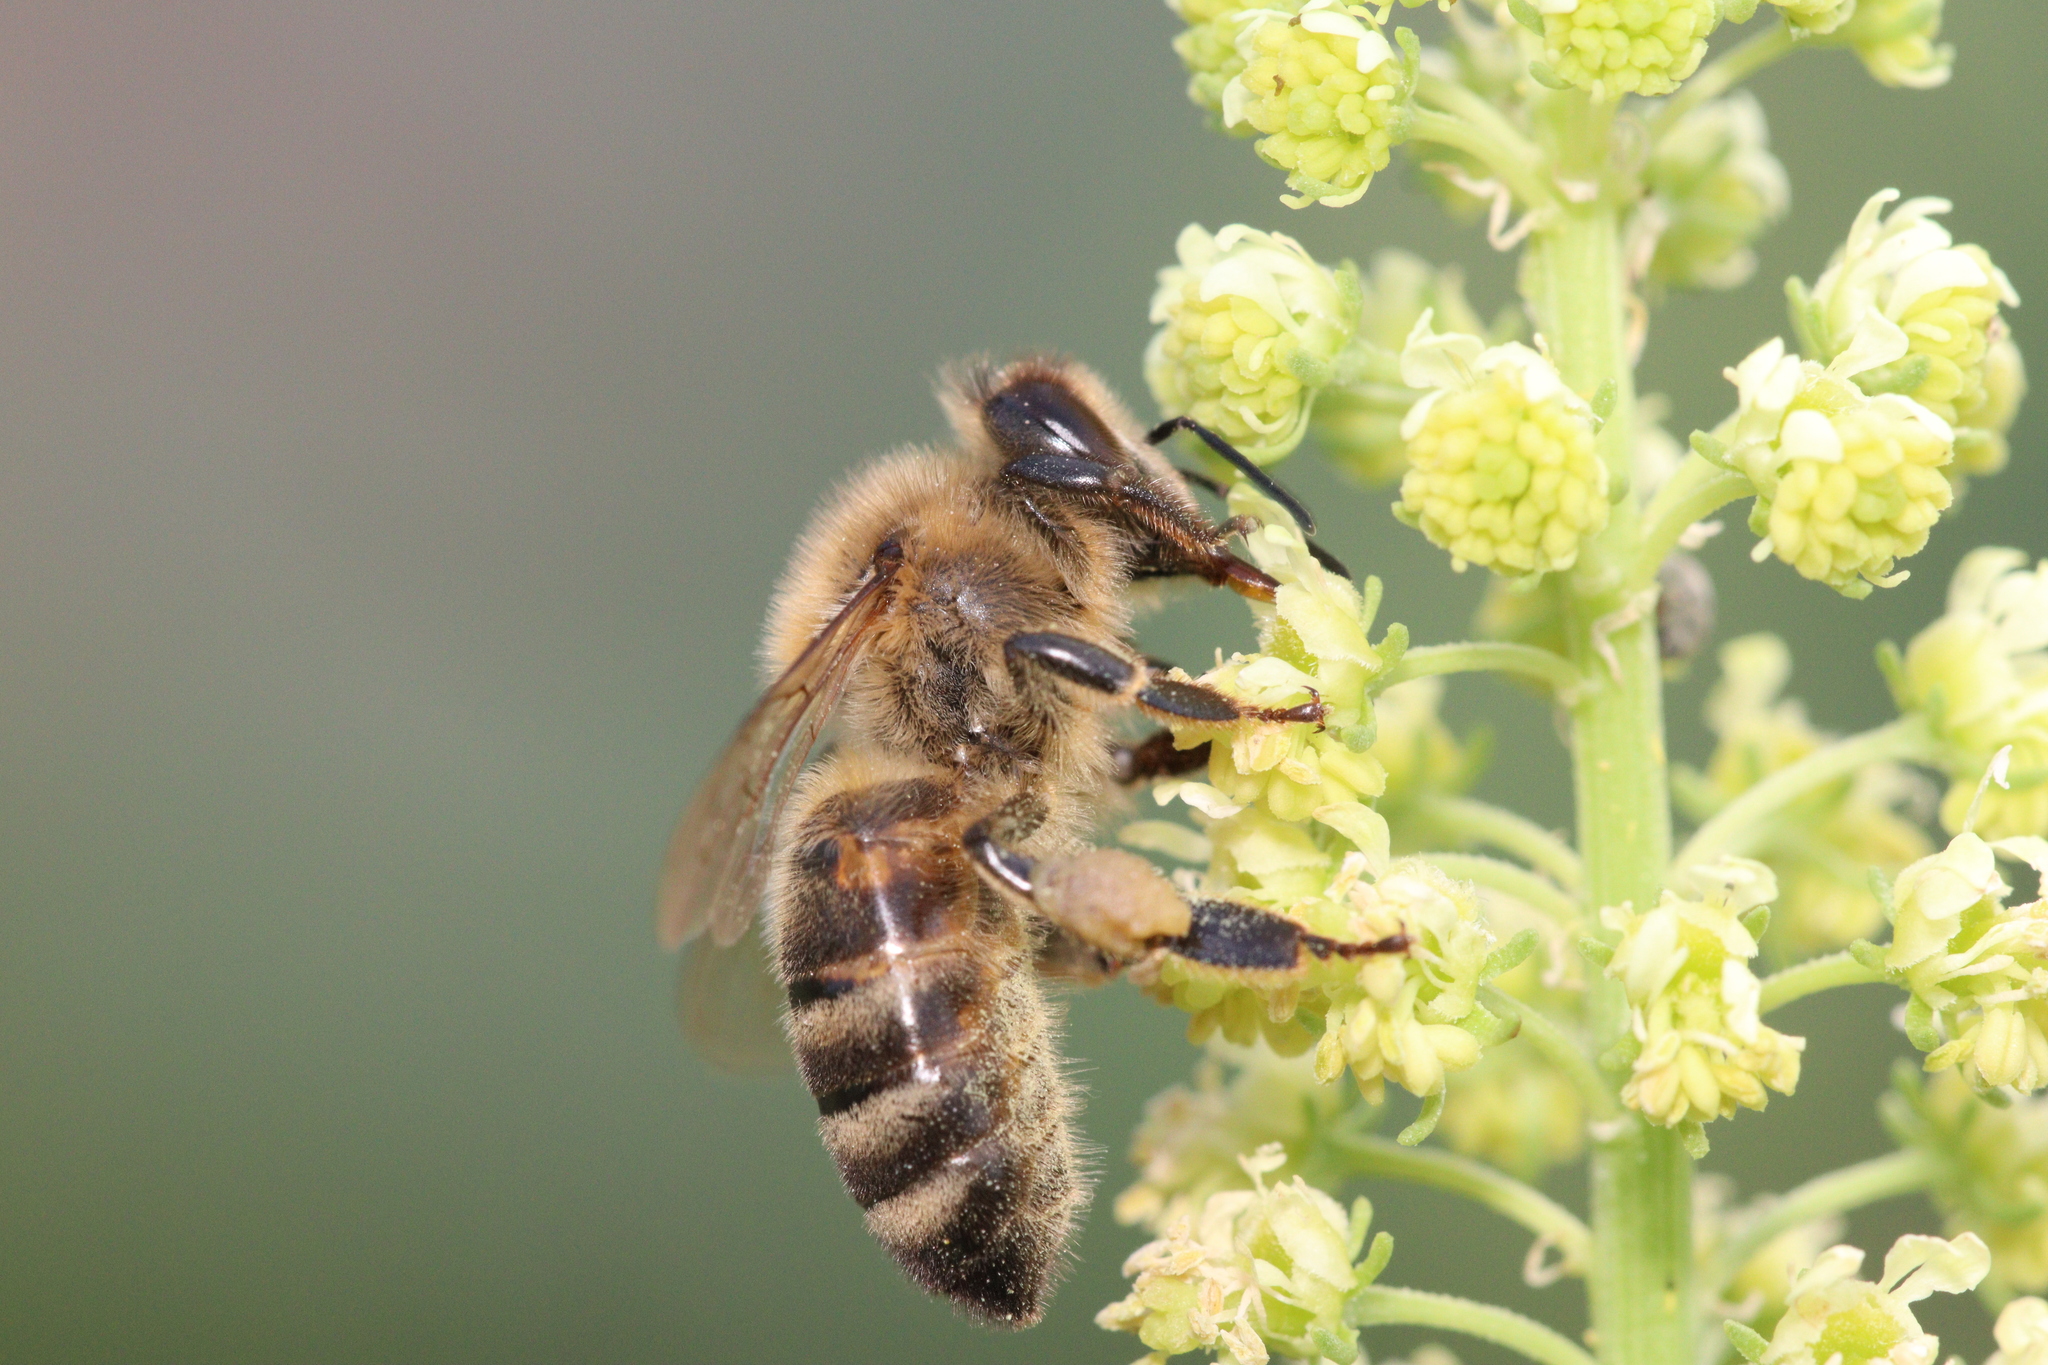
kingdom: Animalia
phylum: Arthropoda
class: Insecta
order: Hymenoptera
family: Apidae
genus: Apis
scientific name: Apis mellifera
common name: Honey bee
